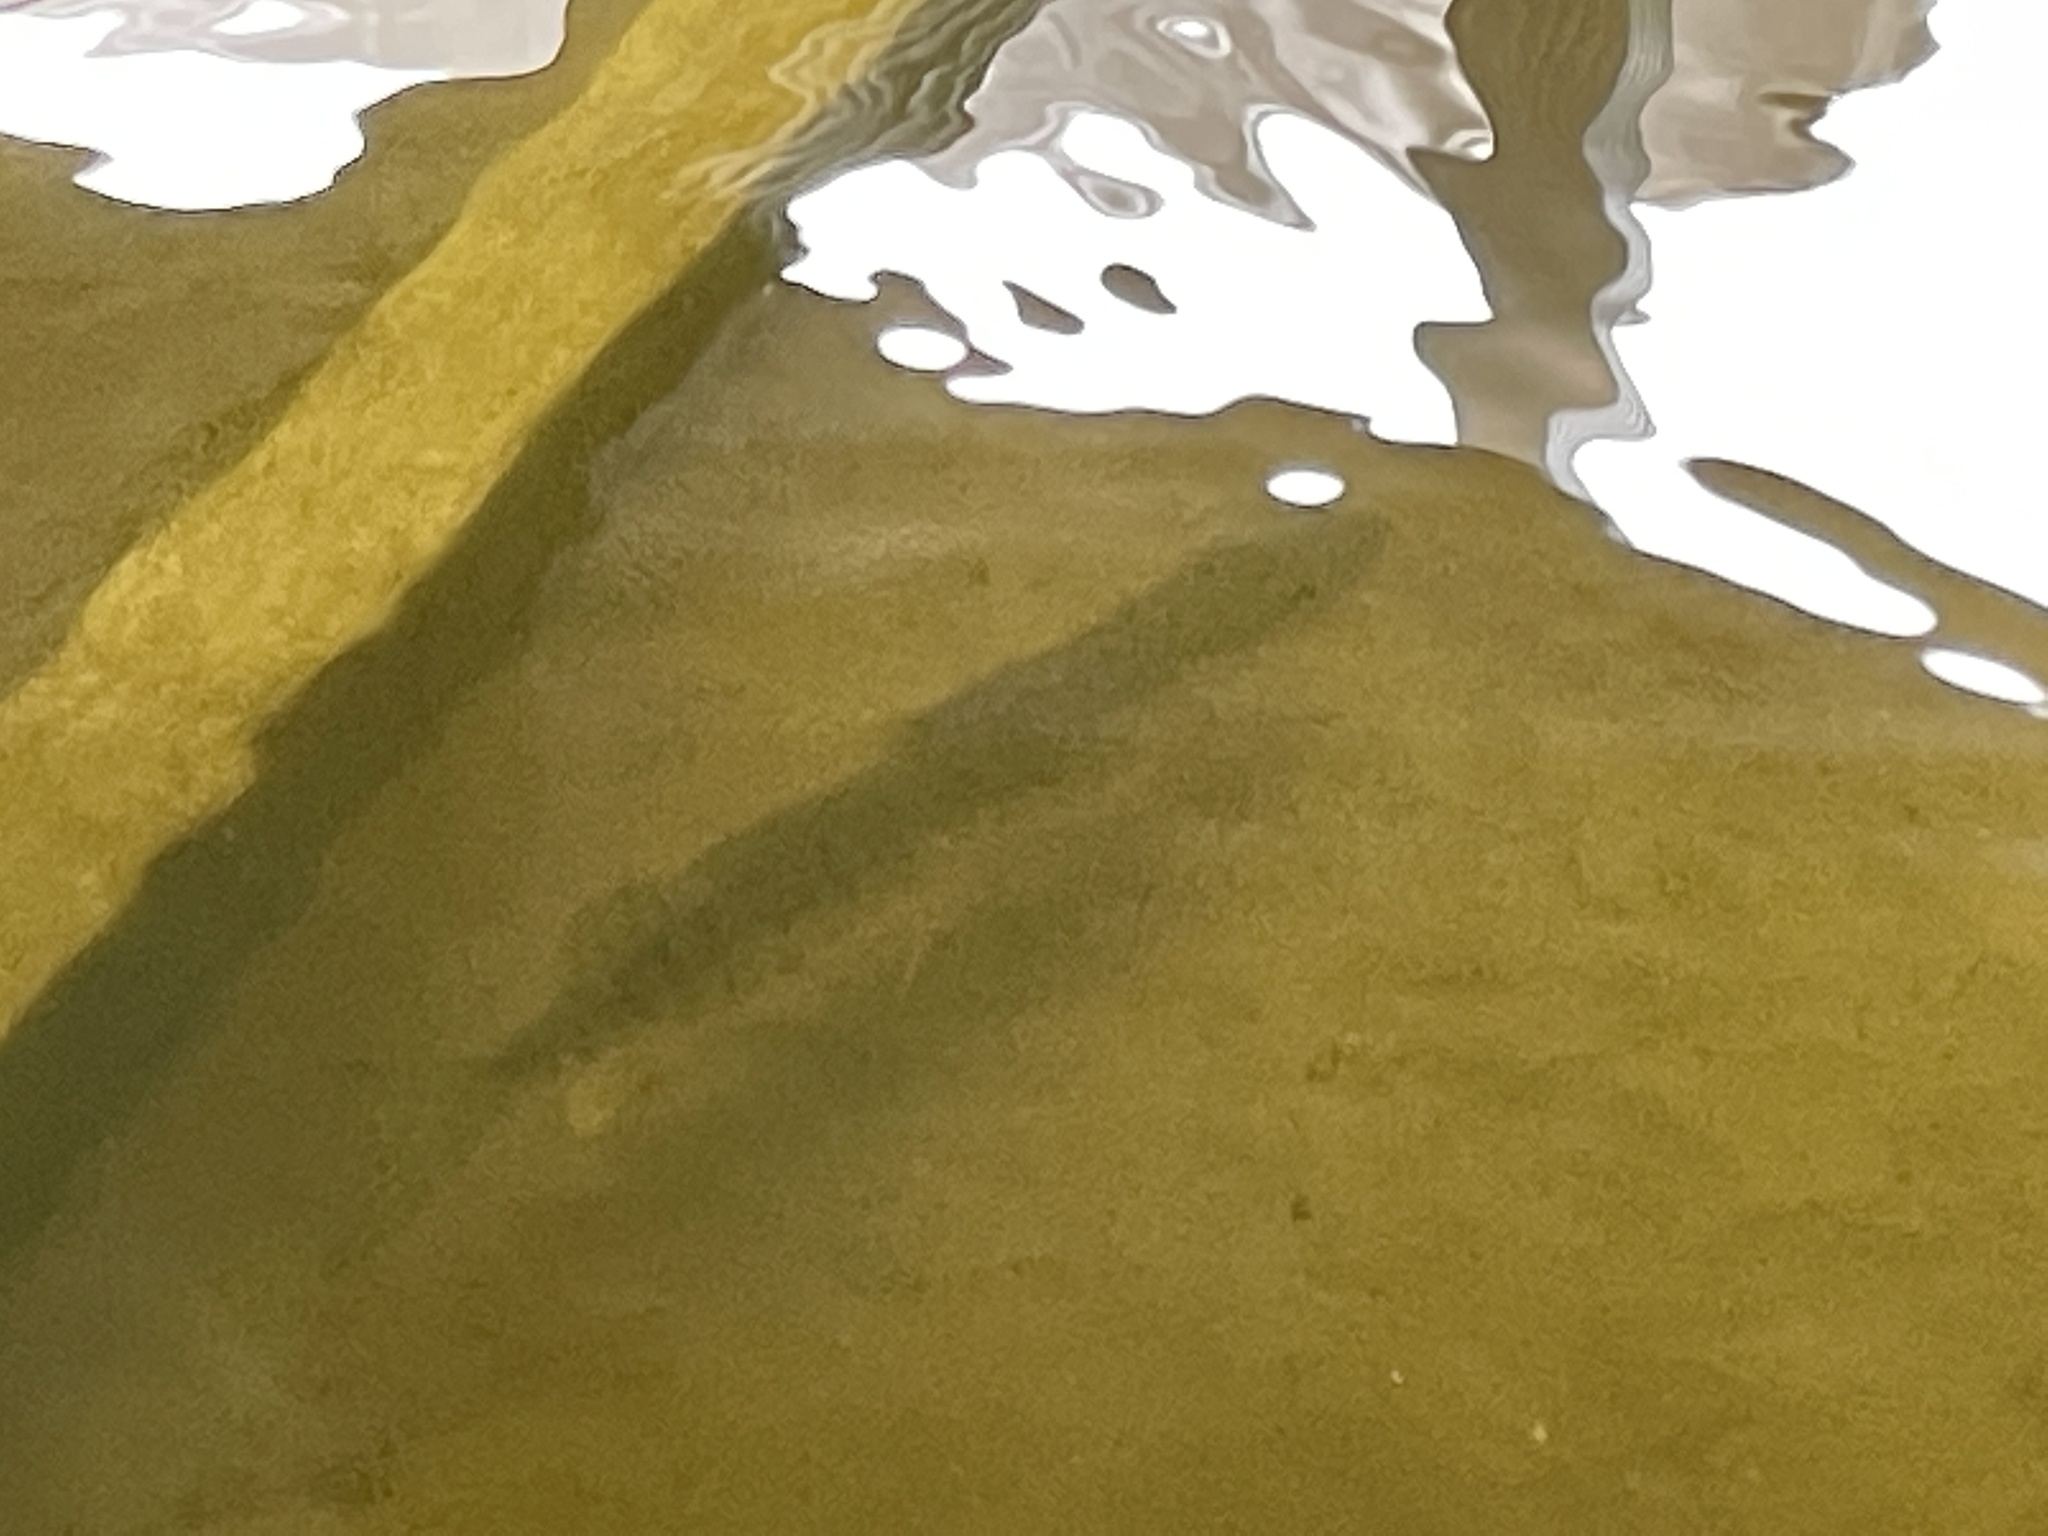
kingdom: Animalia
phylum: Chordata
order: Esociformes
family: Esocidae
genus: Esox
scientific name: Esox masquinongy
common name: Muskellunge
